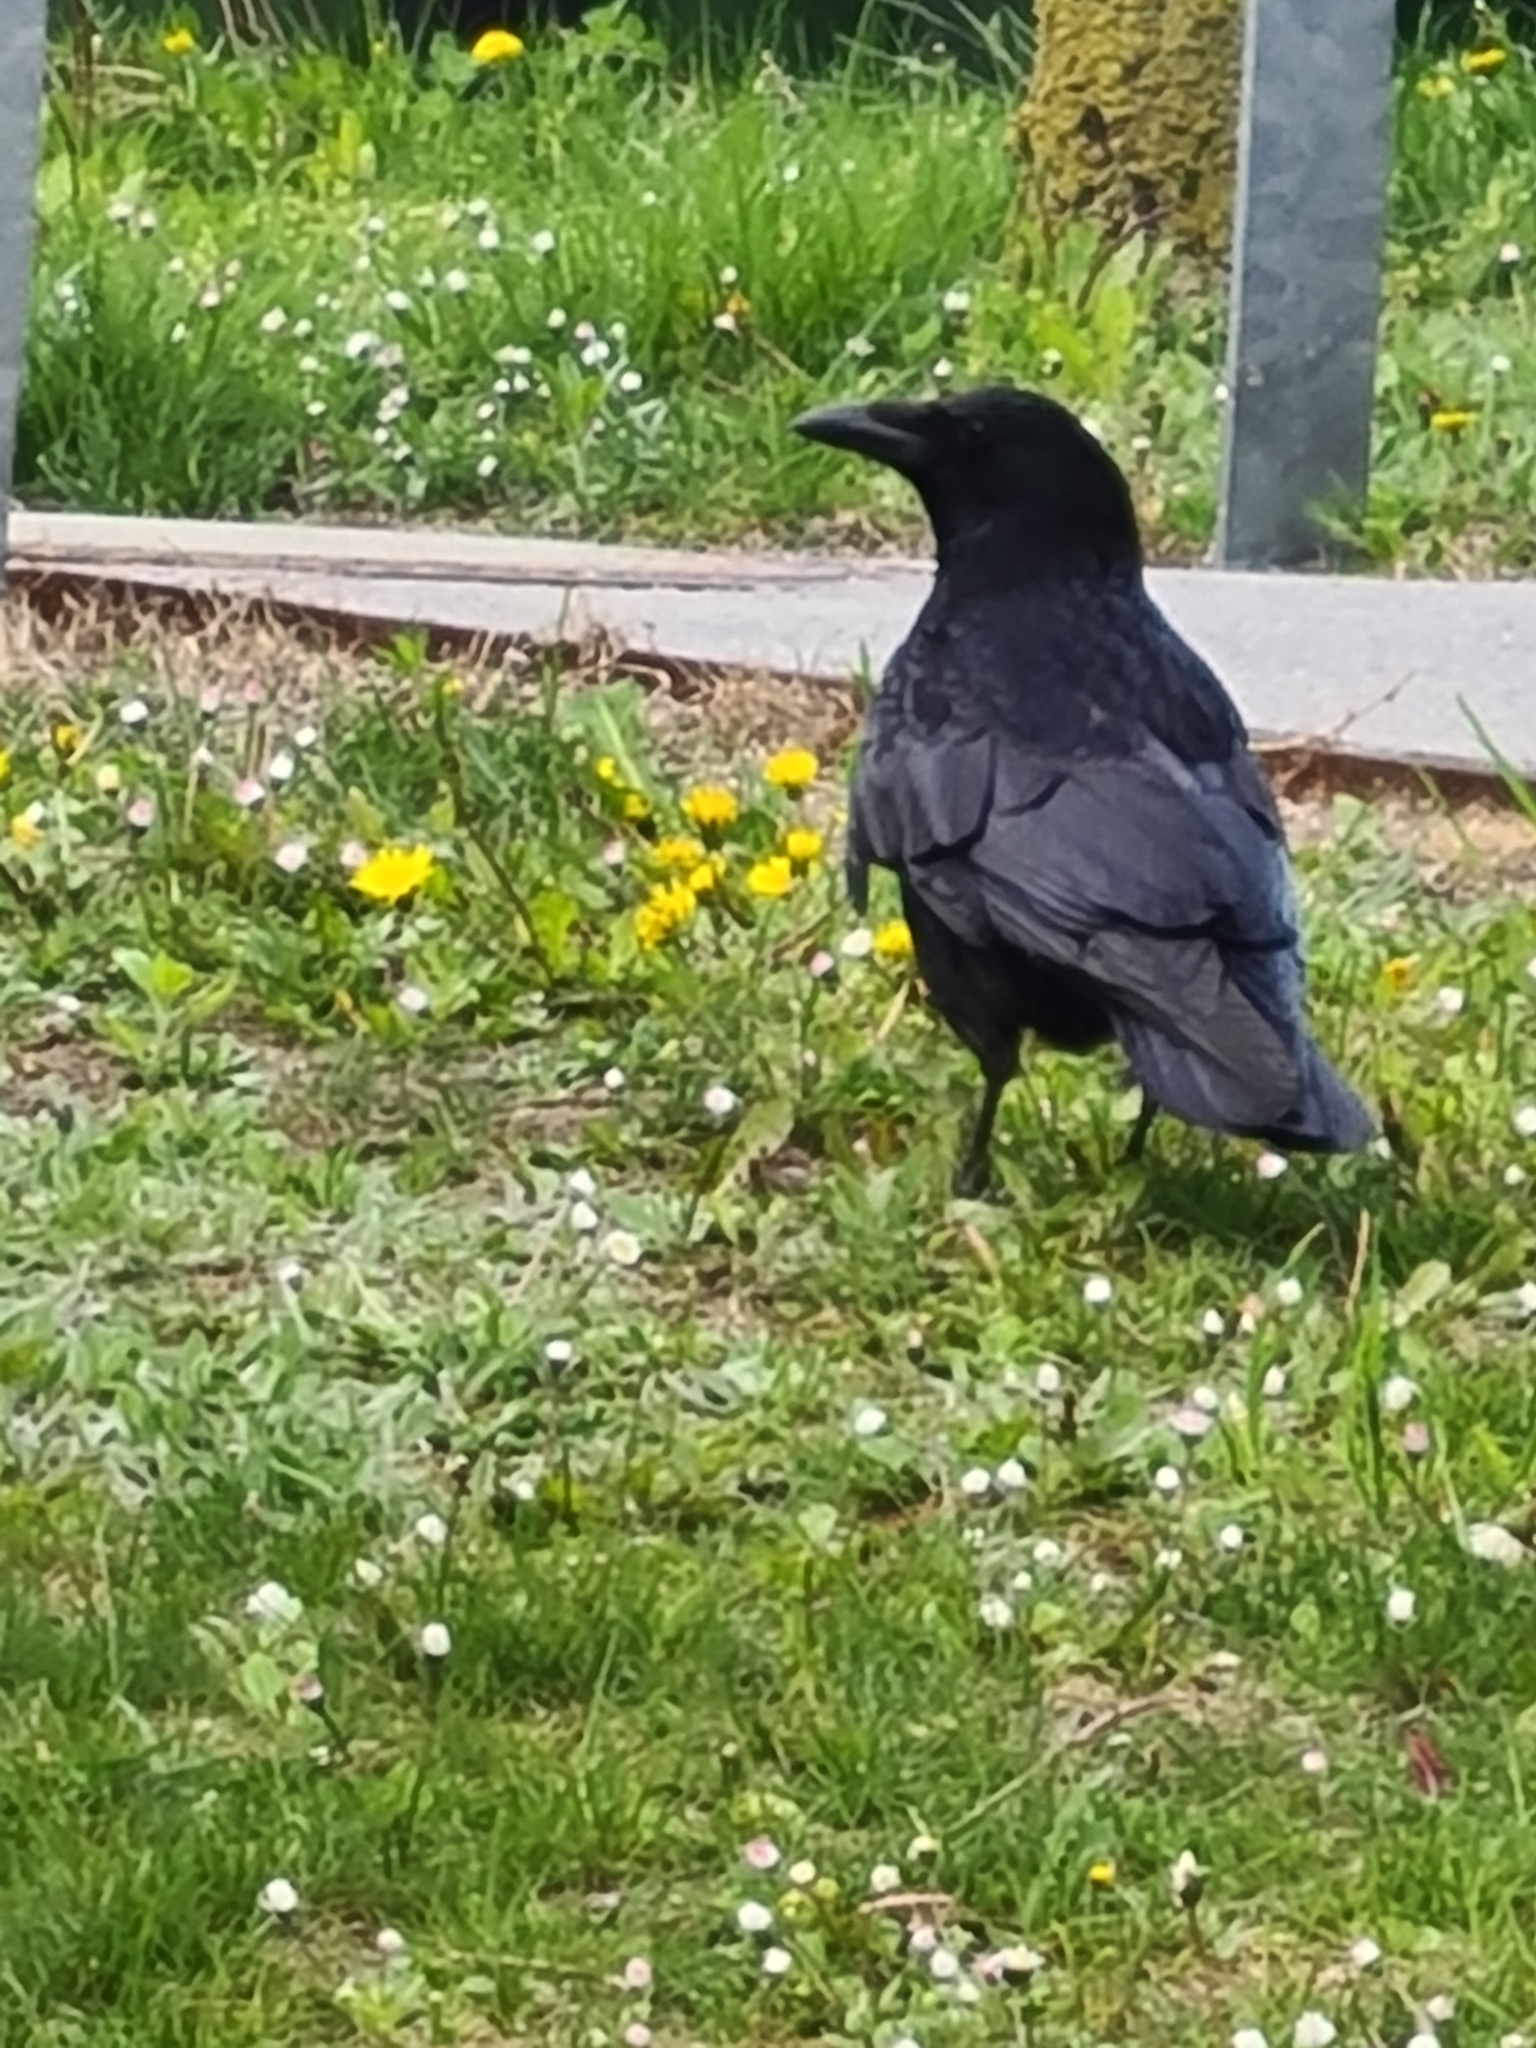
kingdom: Animalia
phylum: Chordata
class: Aves
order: Passeriformes
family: Corvidae
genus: Corvus
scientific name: Corvus corone
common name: Carrion crow
